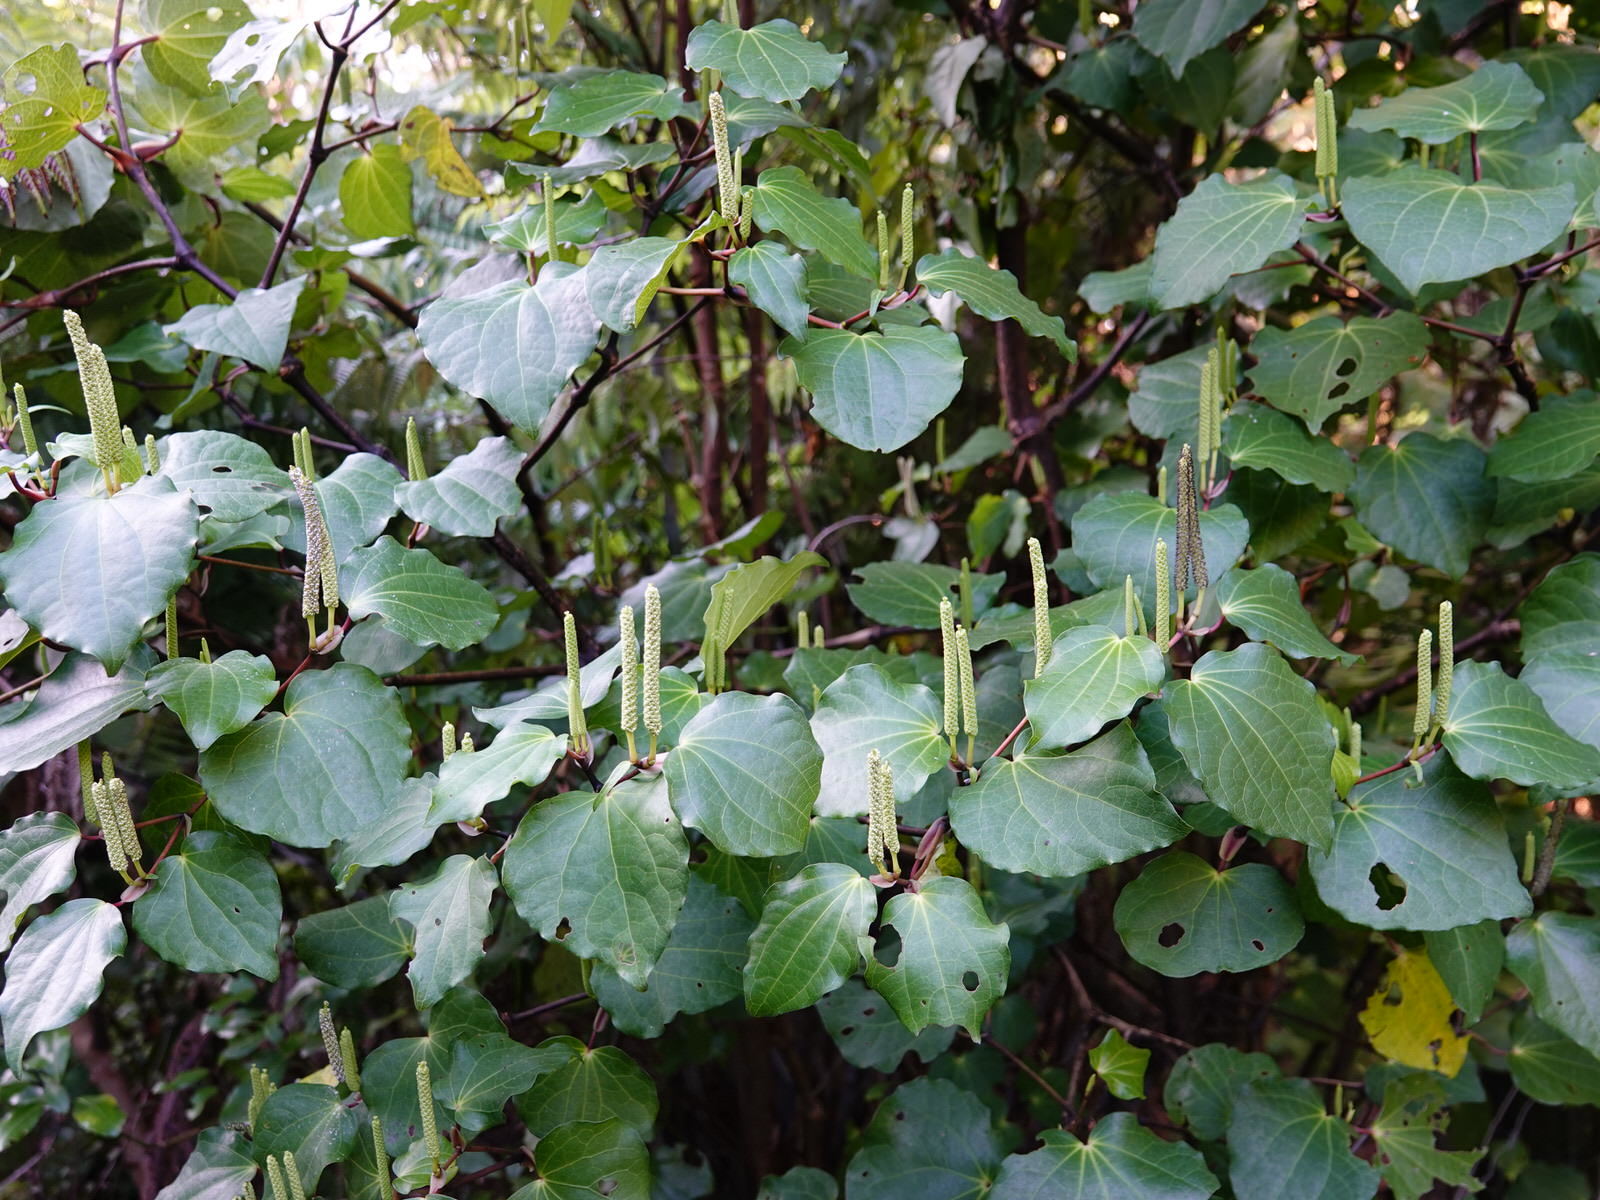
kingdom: Plantae
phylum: Tracheophyta
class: Magnoliopsida
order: Piperales
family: Piperaceae
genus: Macropiper
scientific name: Macropiper excelsum
